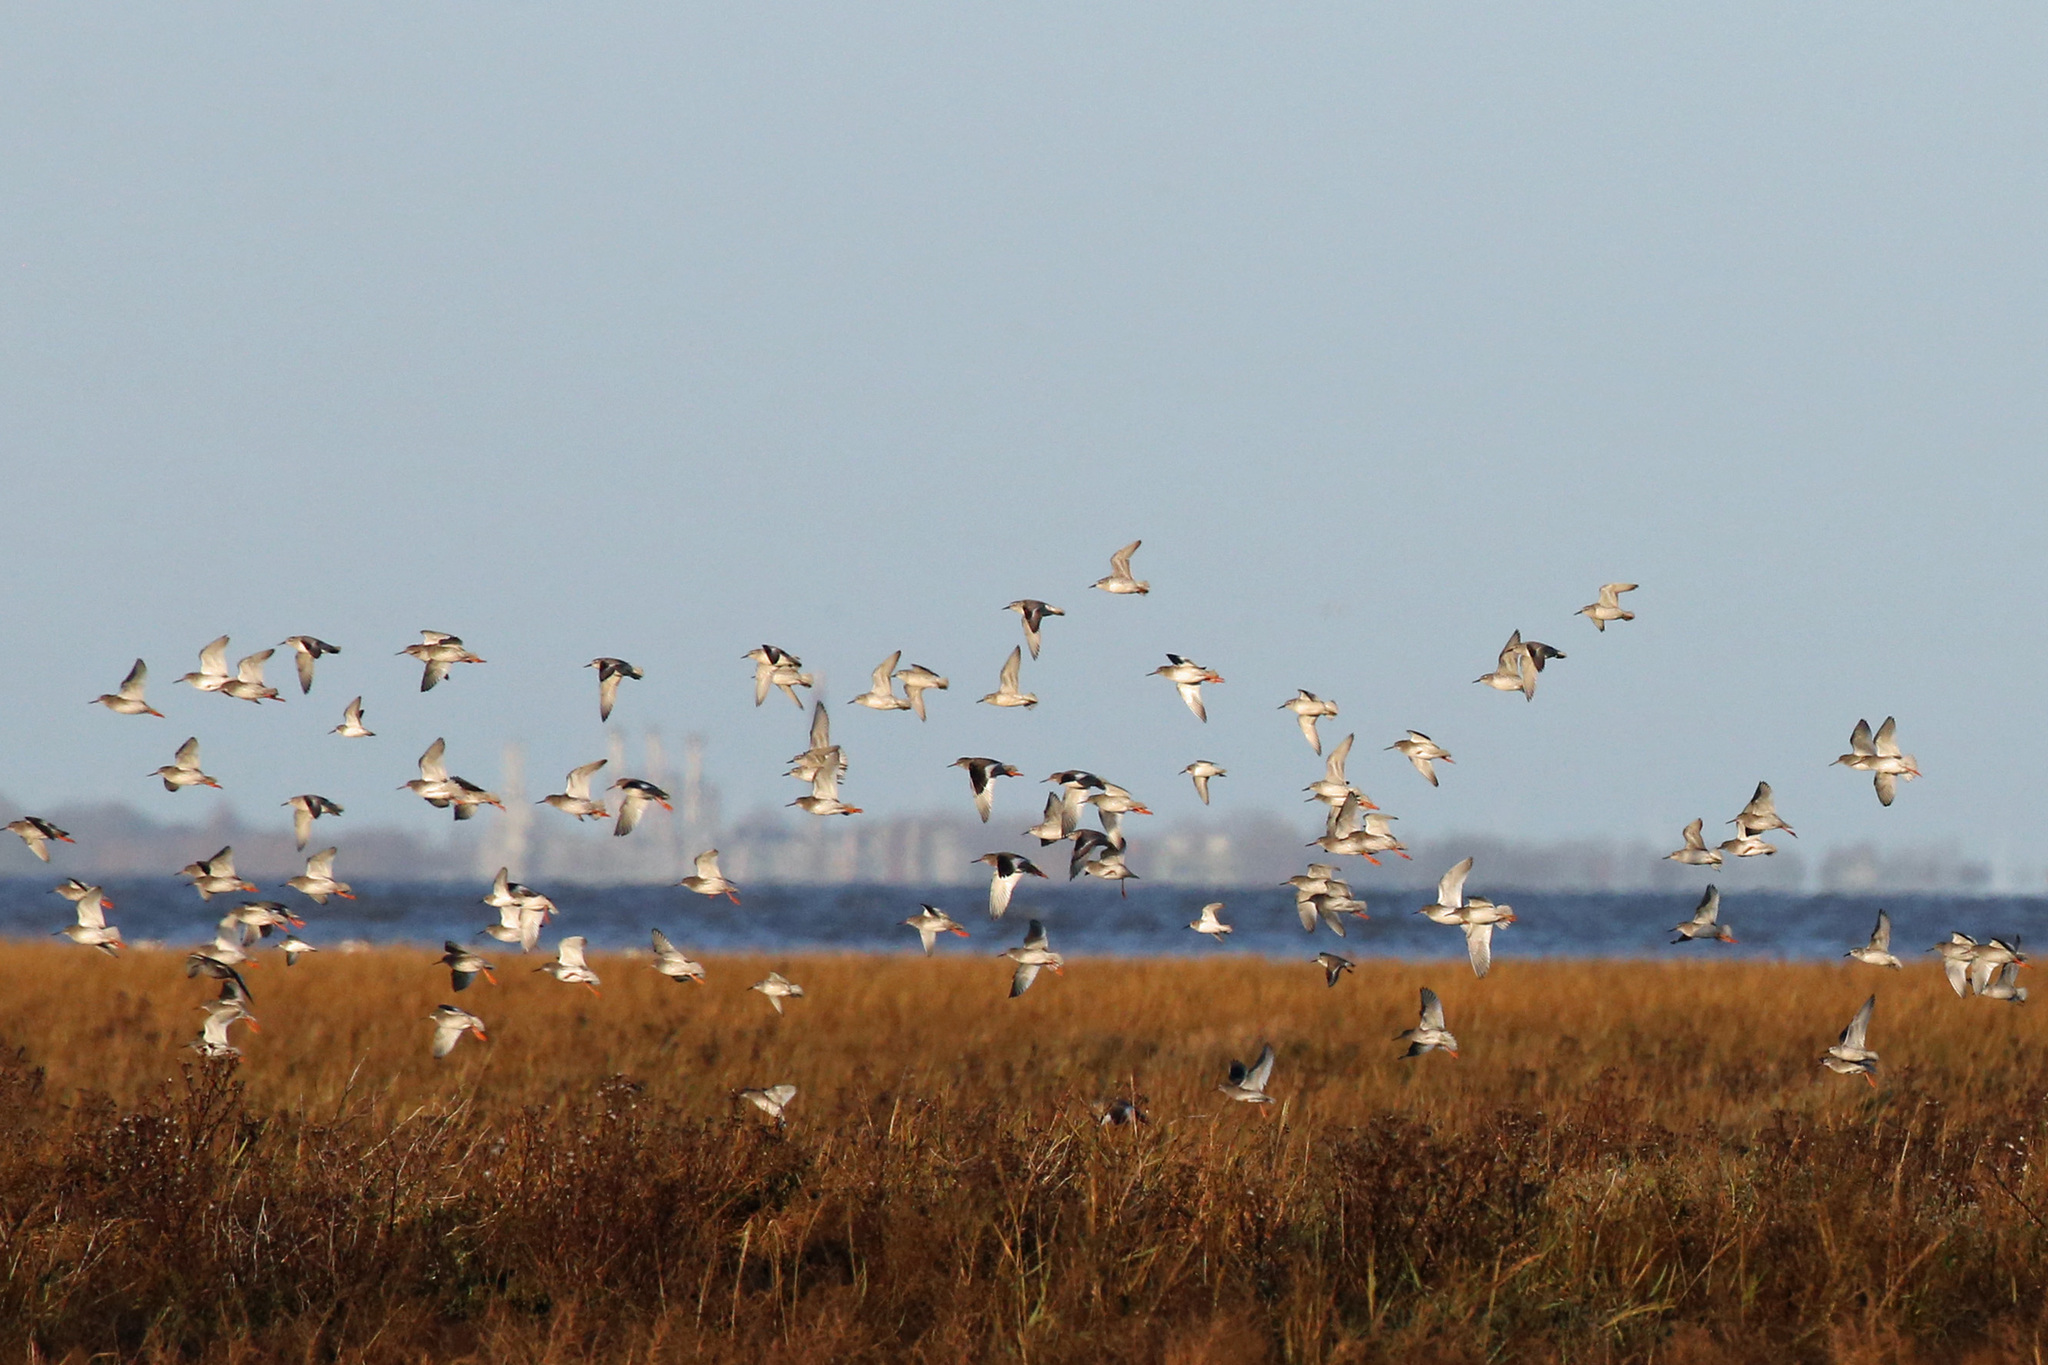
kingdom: Animalia
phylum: Chordata
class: Aves
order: Charadriiformes
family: Scolopacidae
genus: Calidris
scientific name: Calidris alpina
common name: Dunlin
